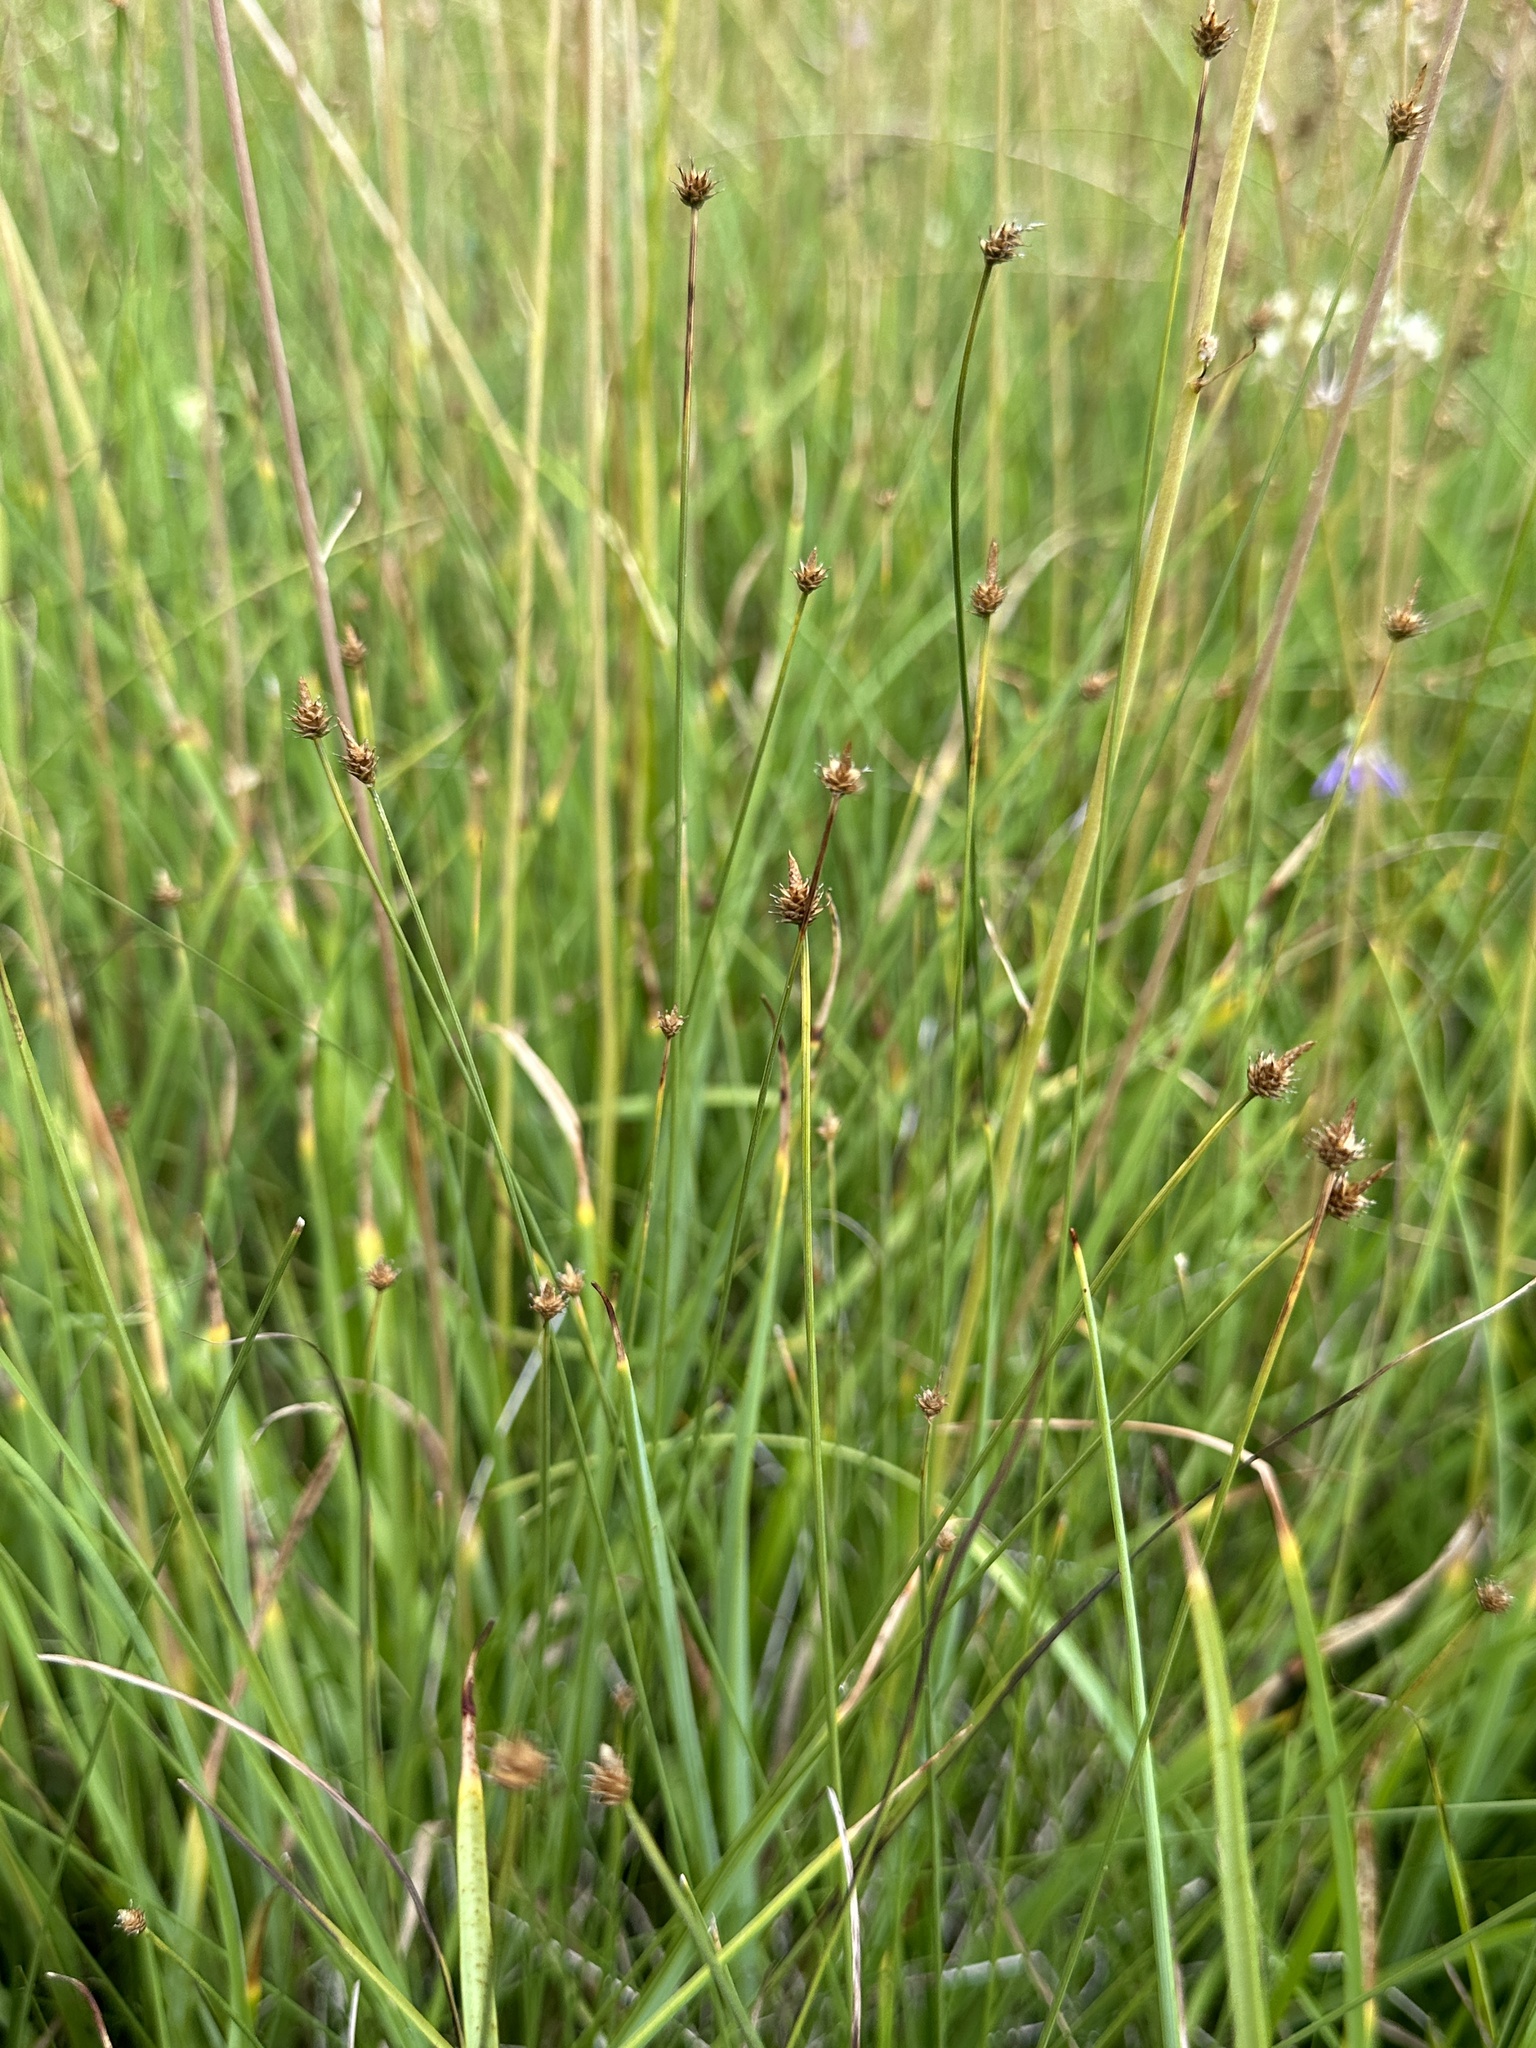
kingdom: Plantae
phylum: Tracheophyta
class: Liliopsida
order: Poales
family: Cyperaceae
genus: Carex
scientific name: Carex capitata
